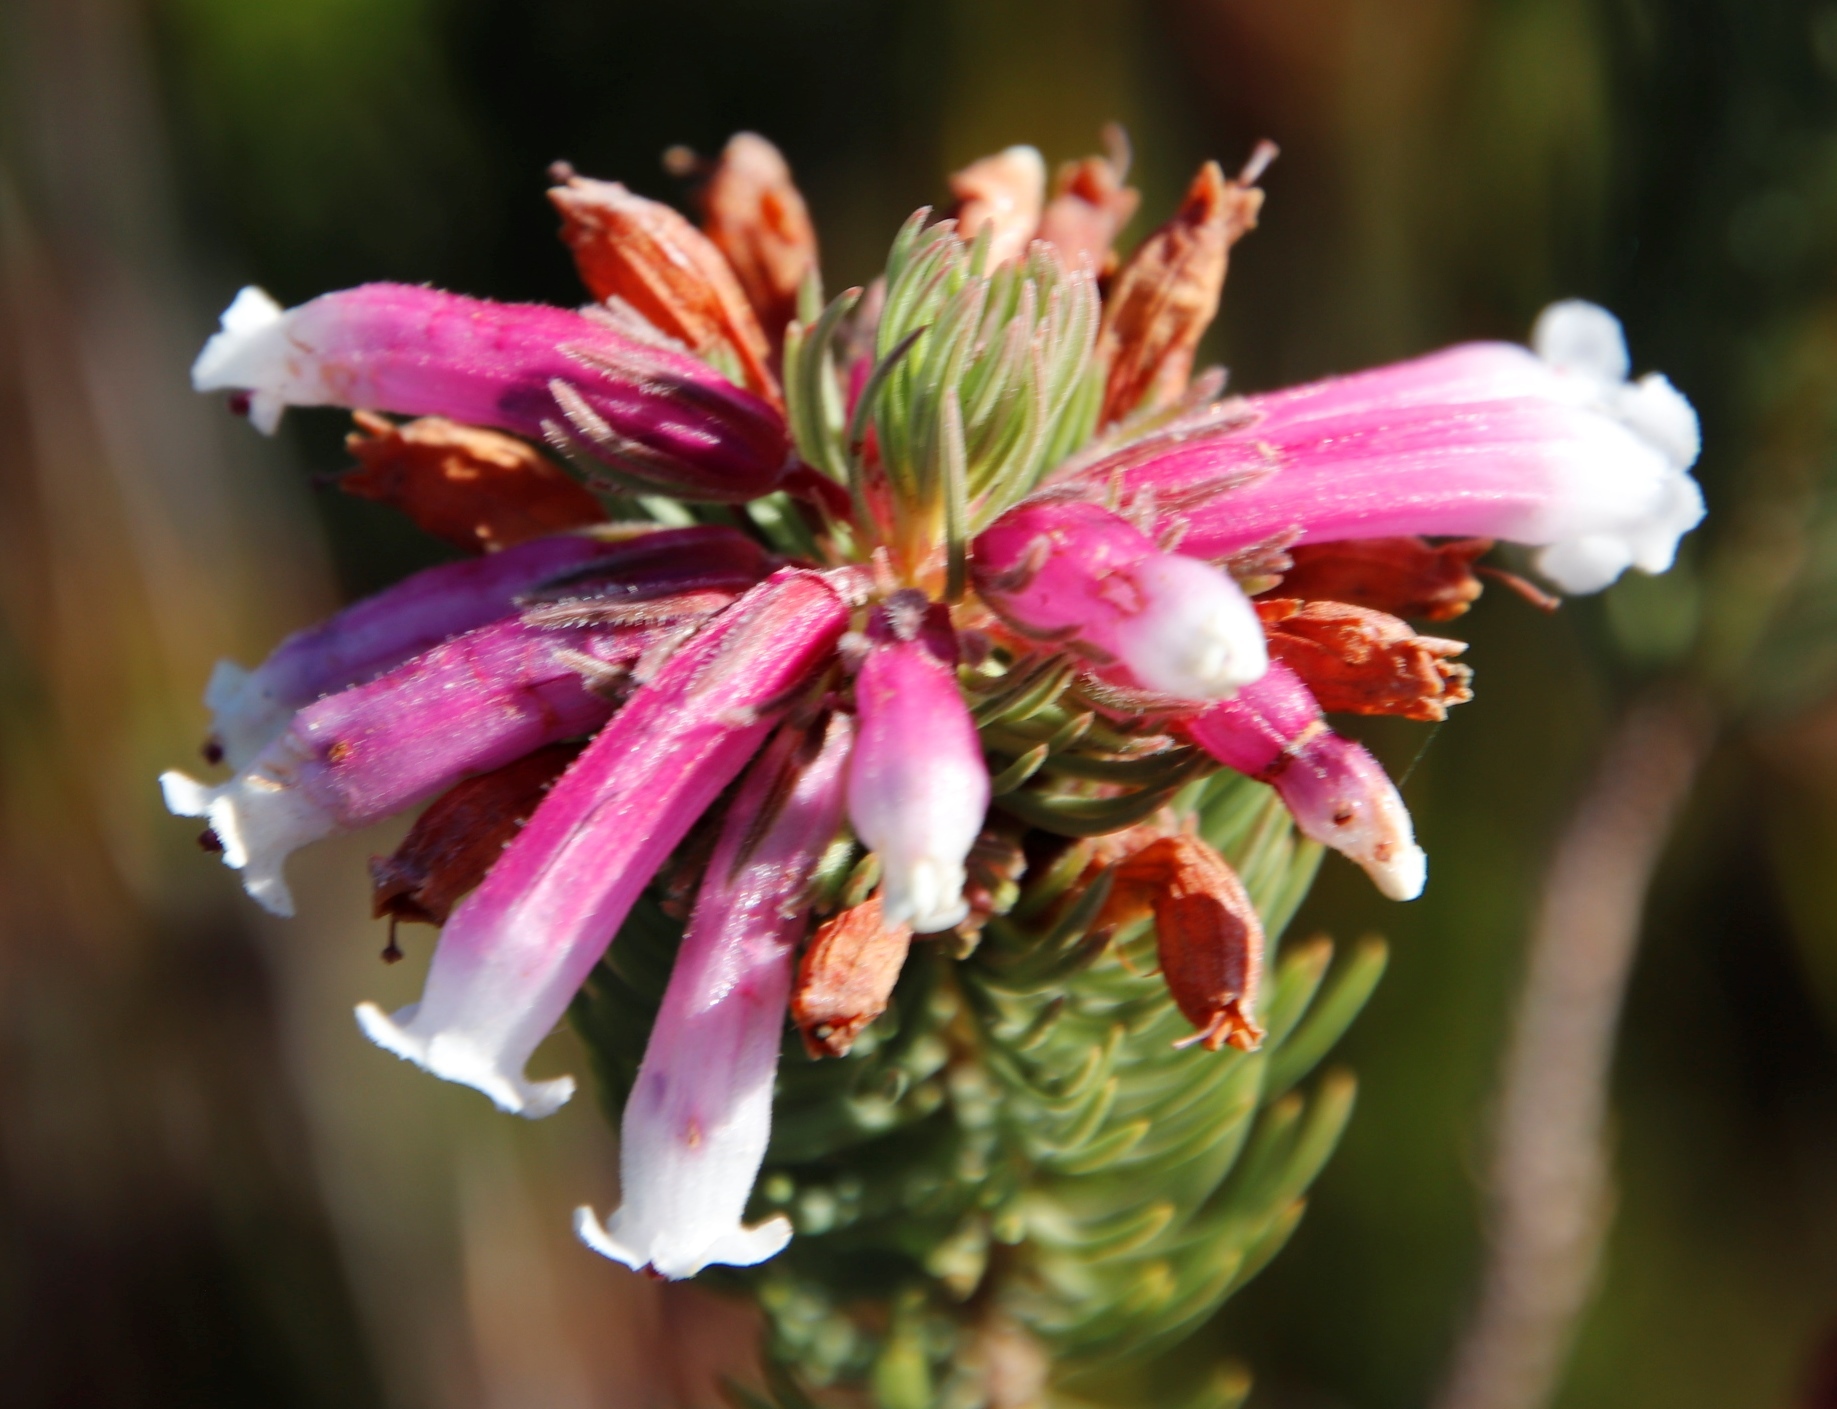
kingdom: Plantae
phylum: Tracheophyta
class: Magnoliopsida
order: Ericales
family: Ericaceae
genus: Erica
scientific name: Erica viscaria
